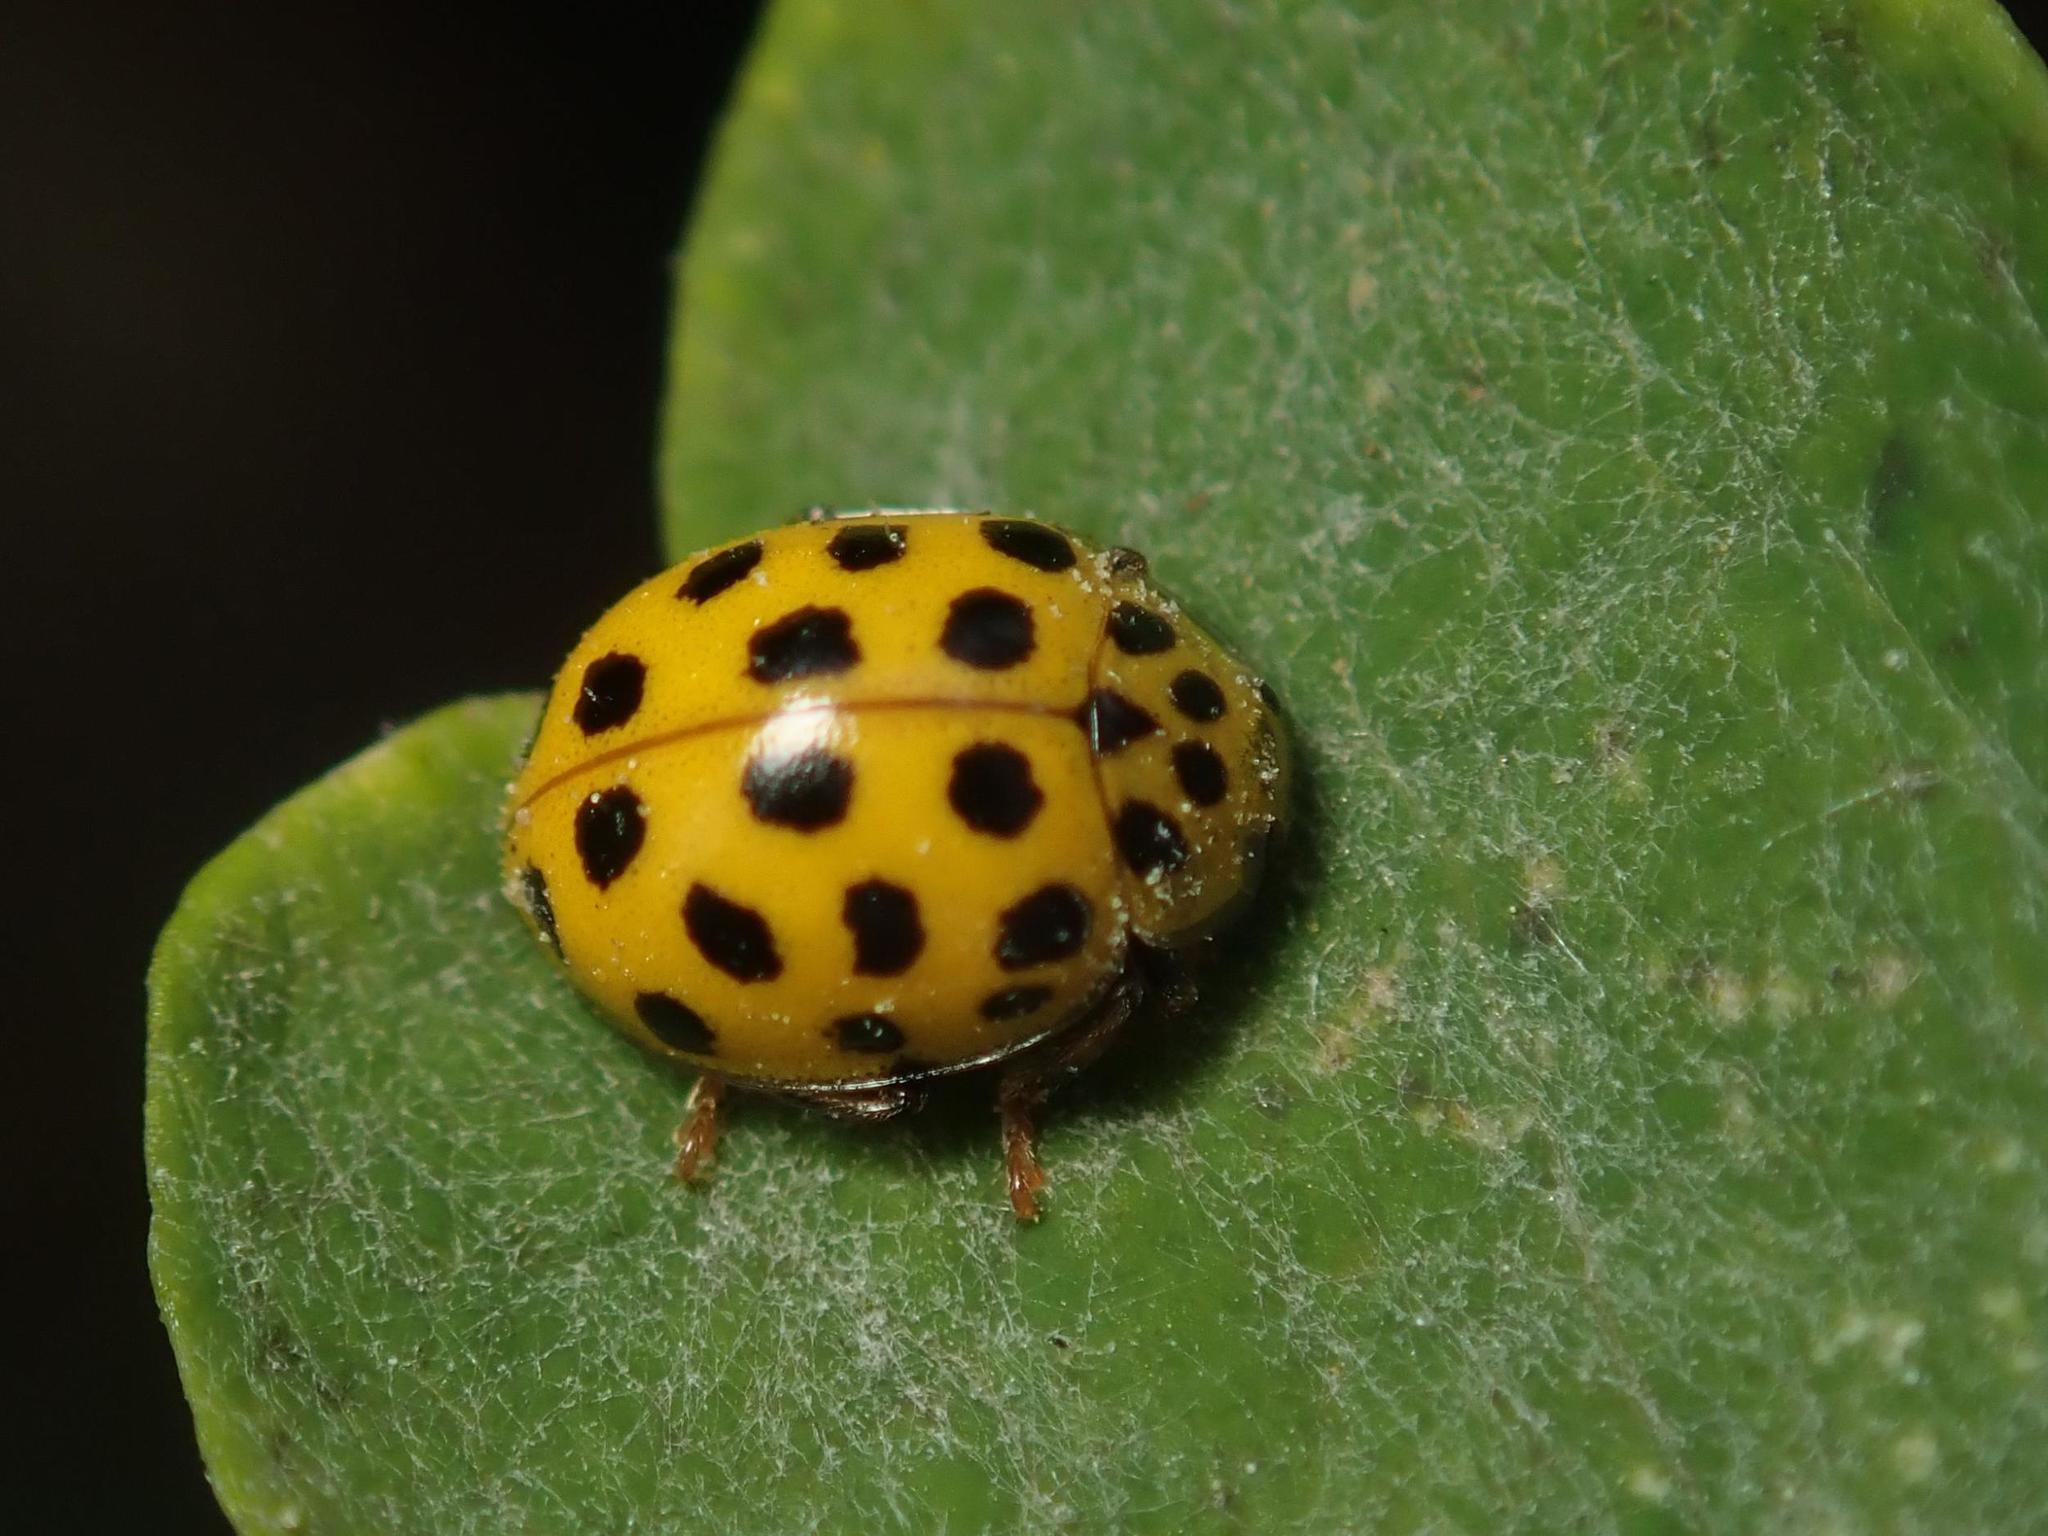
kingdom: Animalia
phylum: Arthropoda
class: Insecta
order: Coleoptera
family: Coccinellidae
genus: Psyllobora
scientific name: Psyllobora vigintiduopunctata
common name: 22-spot ladybird
